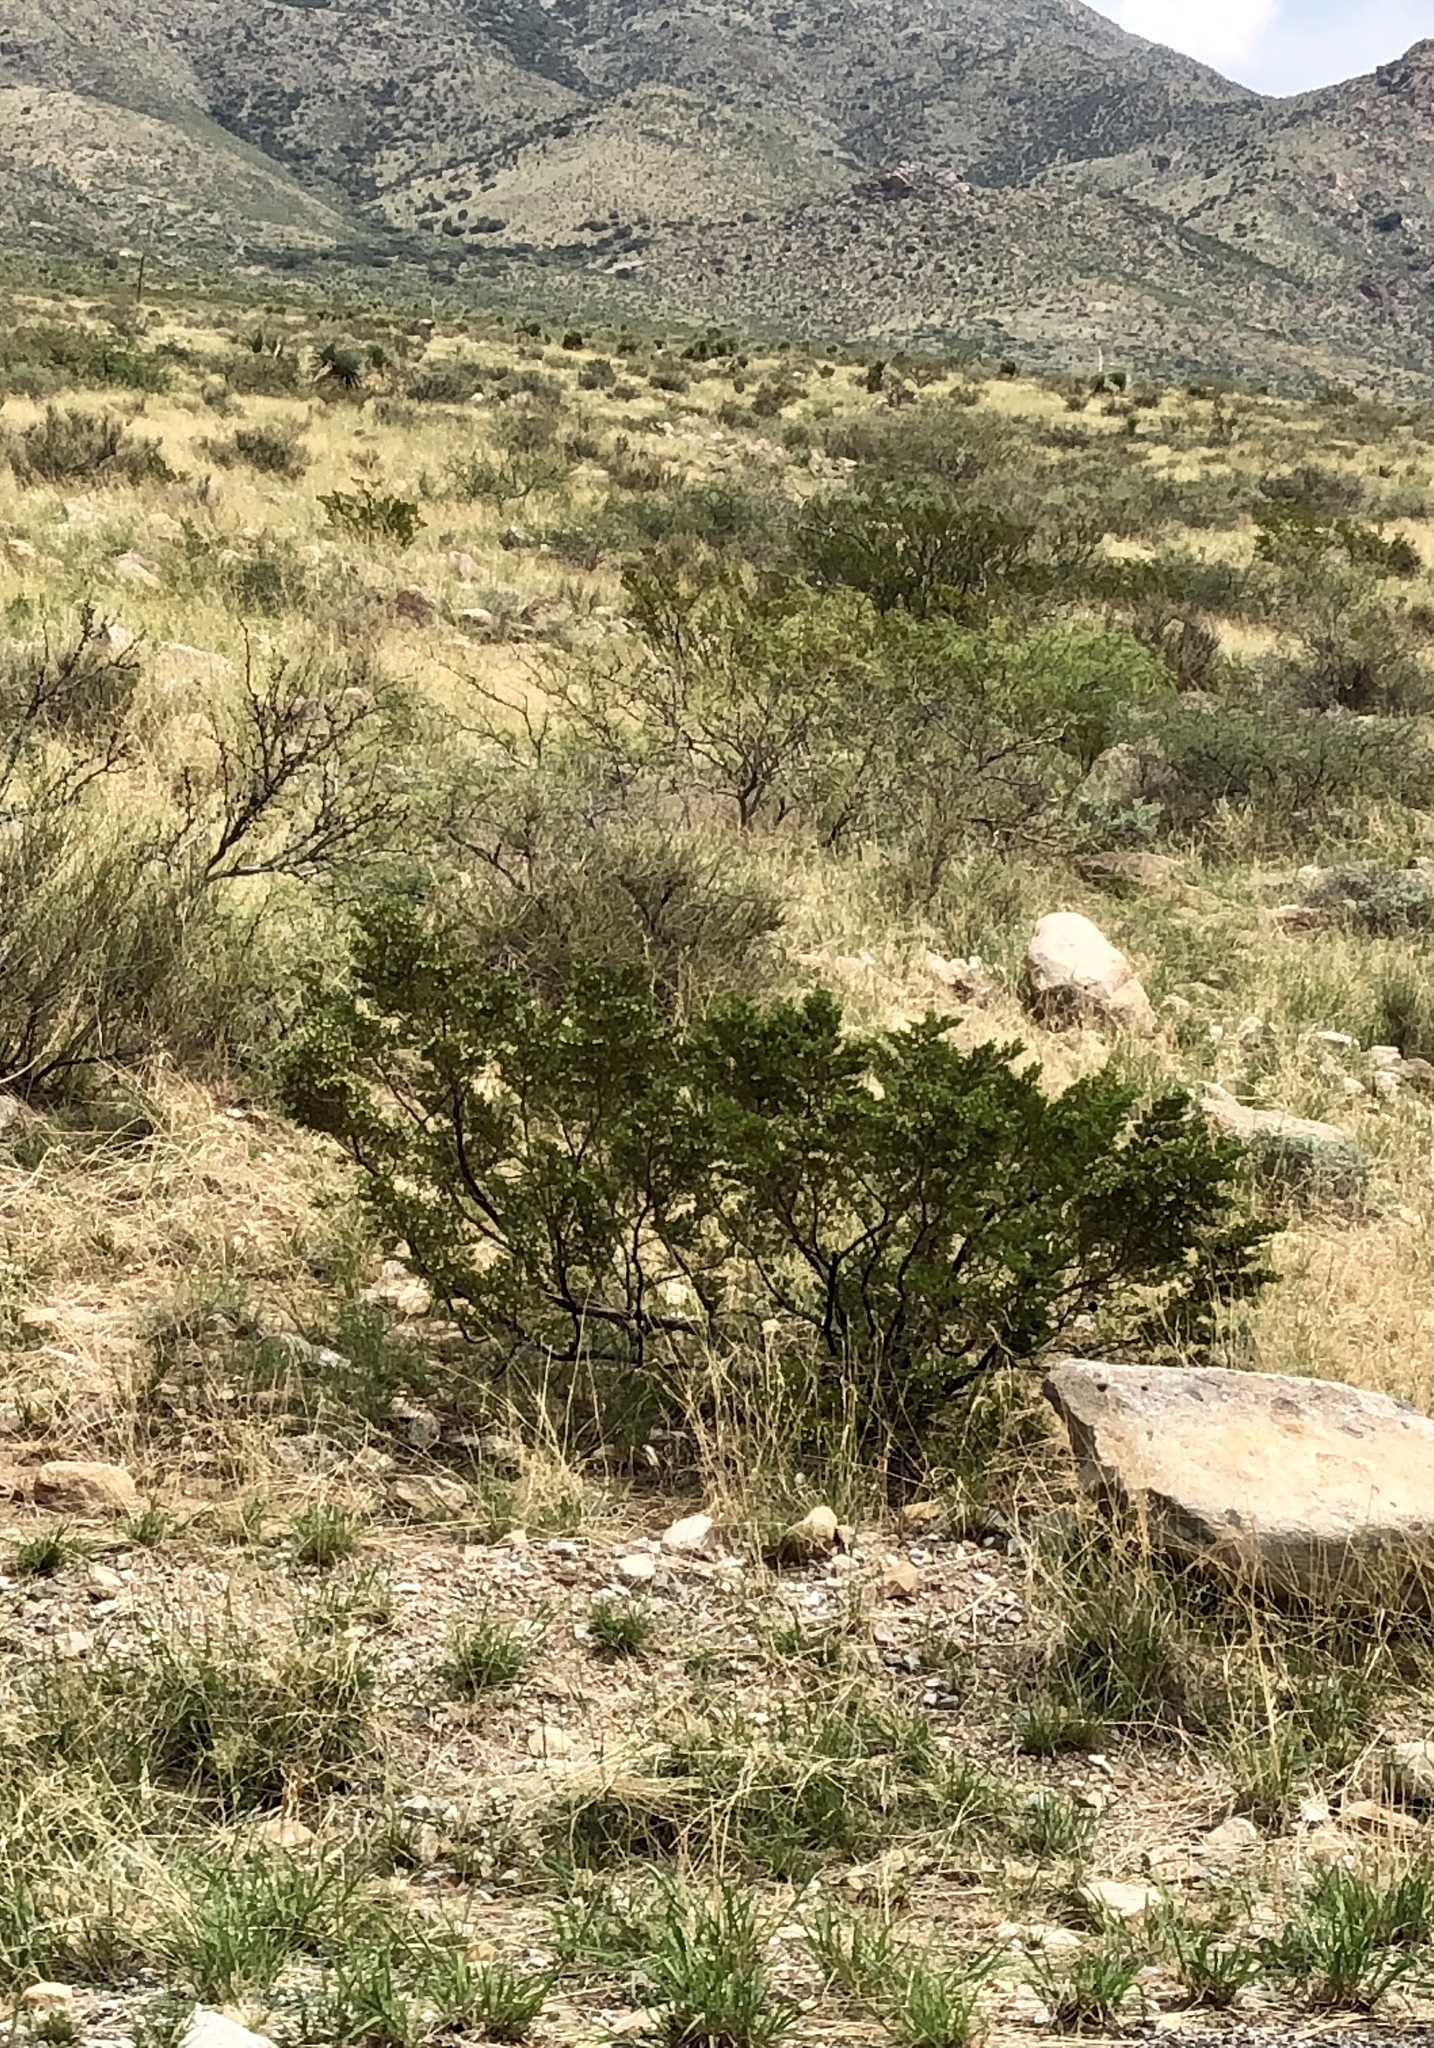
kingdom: Plantae
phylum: Tracheophyta
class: Magnoliopsida
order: Zygophyllales
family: Zygophyllaceae
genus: Larrea
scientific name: Larrea tridentata
